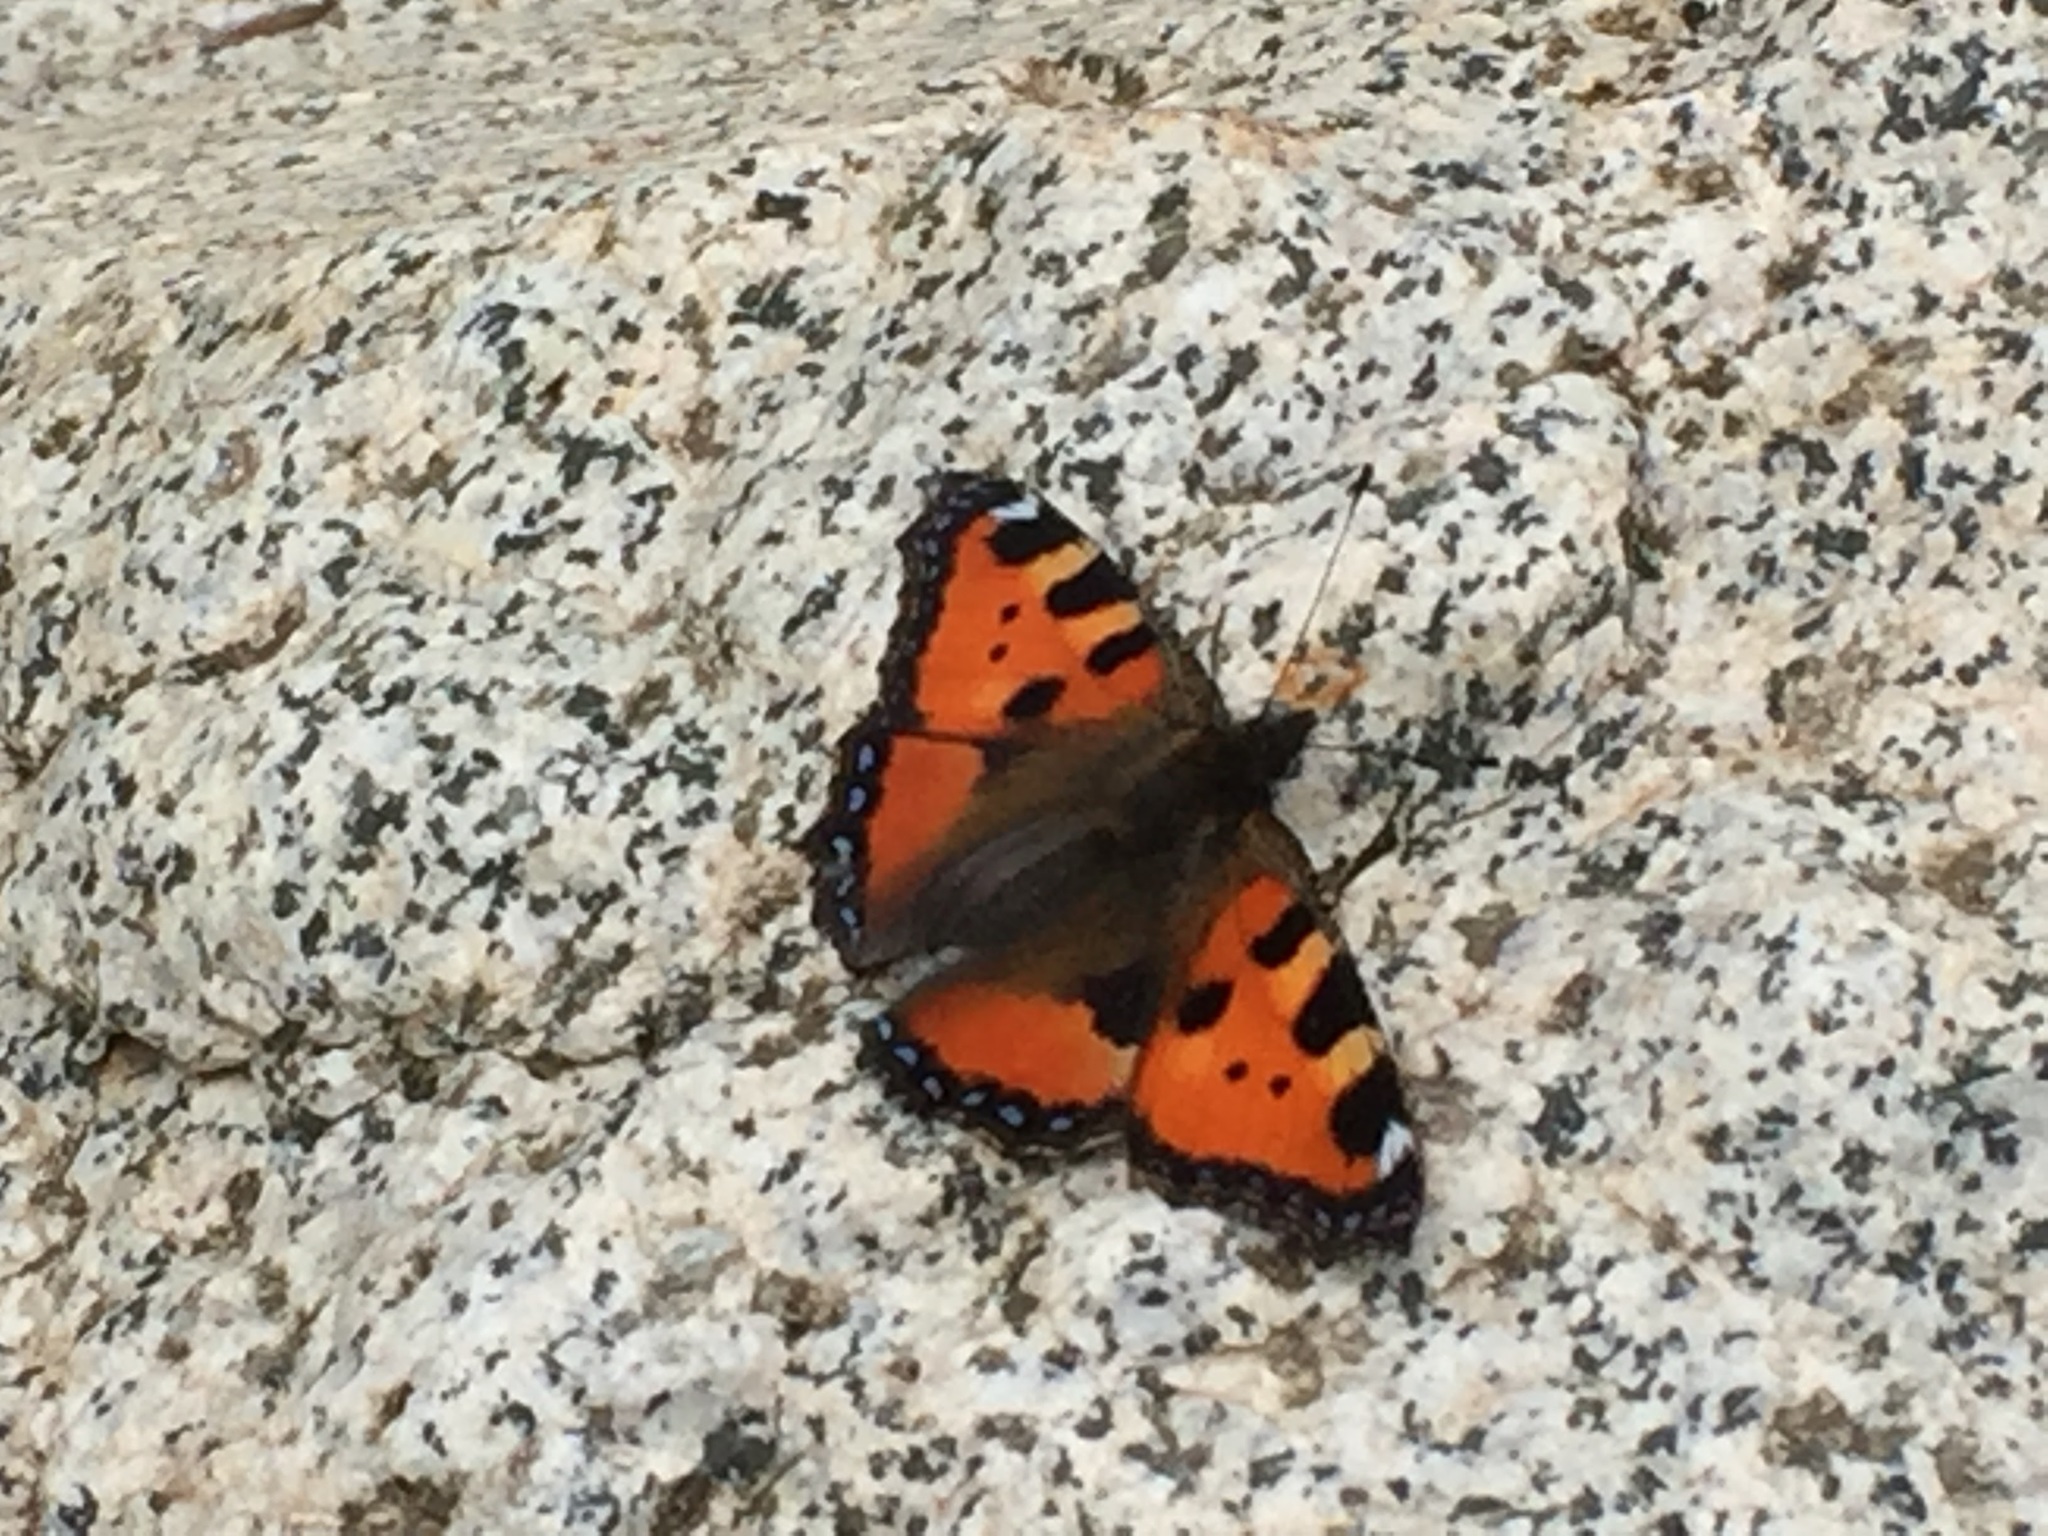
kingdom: Animalia
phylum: Arthropoda
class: Insecta
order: Lepidoptera
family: Nymphalidae
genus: Aglais
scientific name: Aglais urticae
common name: Small tortoiseshell
